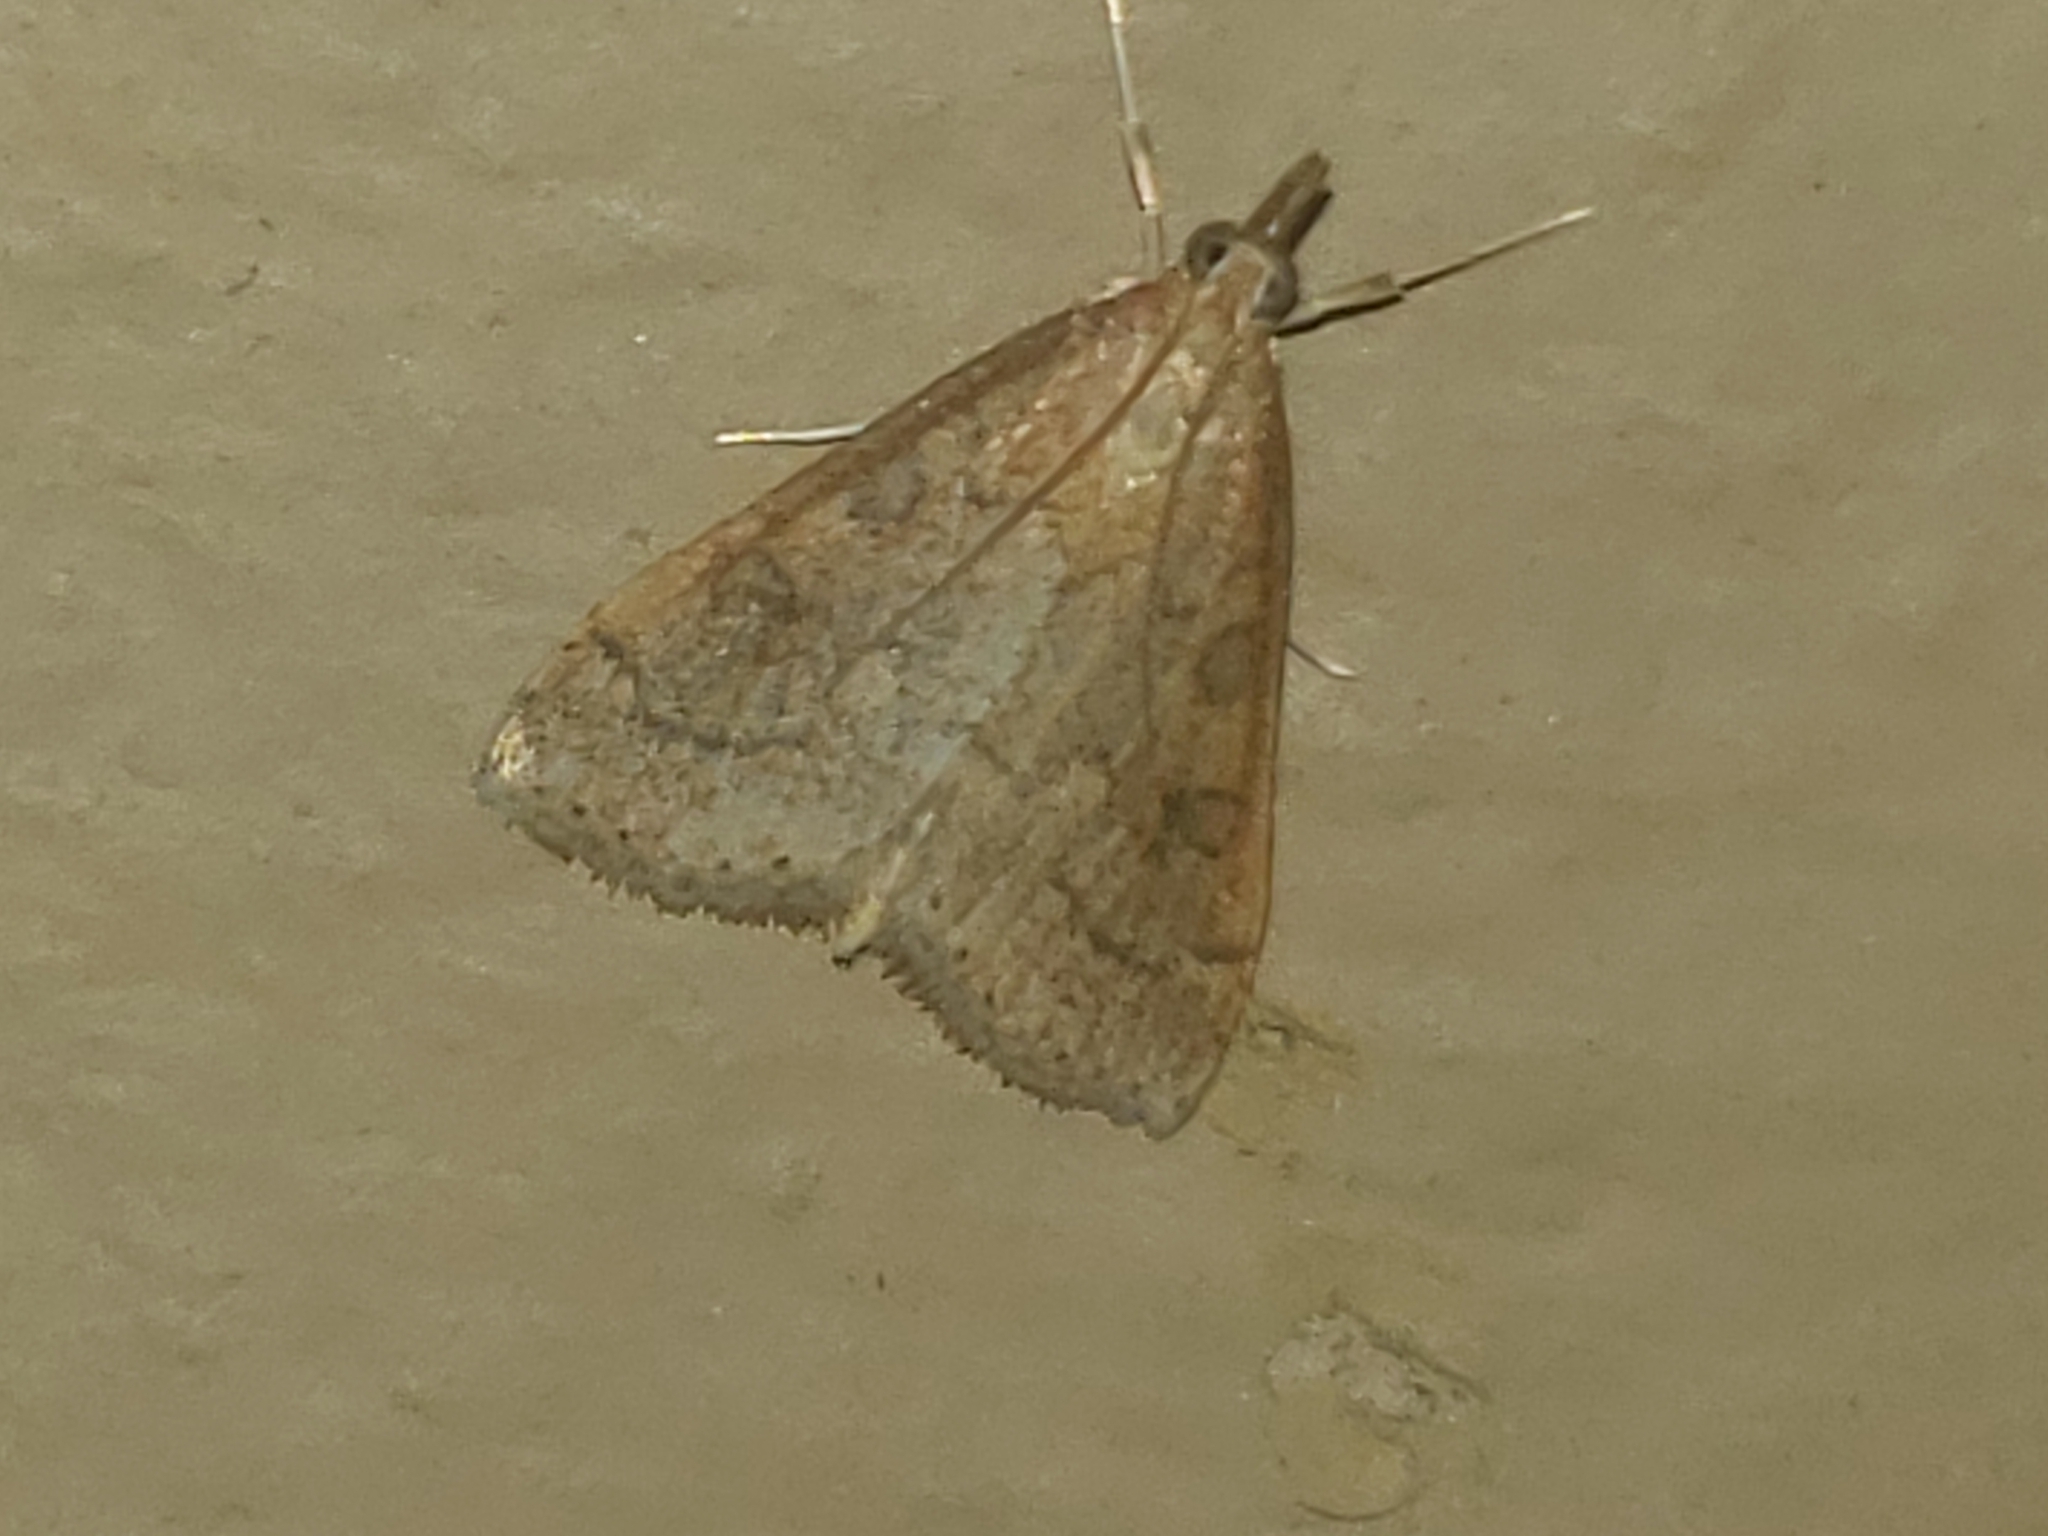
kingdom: Animalia
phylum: Arthropoda
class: Insecta
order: Lepidoptera
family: Crambidae
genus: Udea
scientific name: Udea rubigalis
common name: Celery leaftier moth
